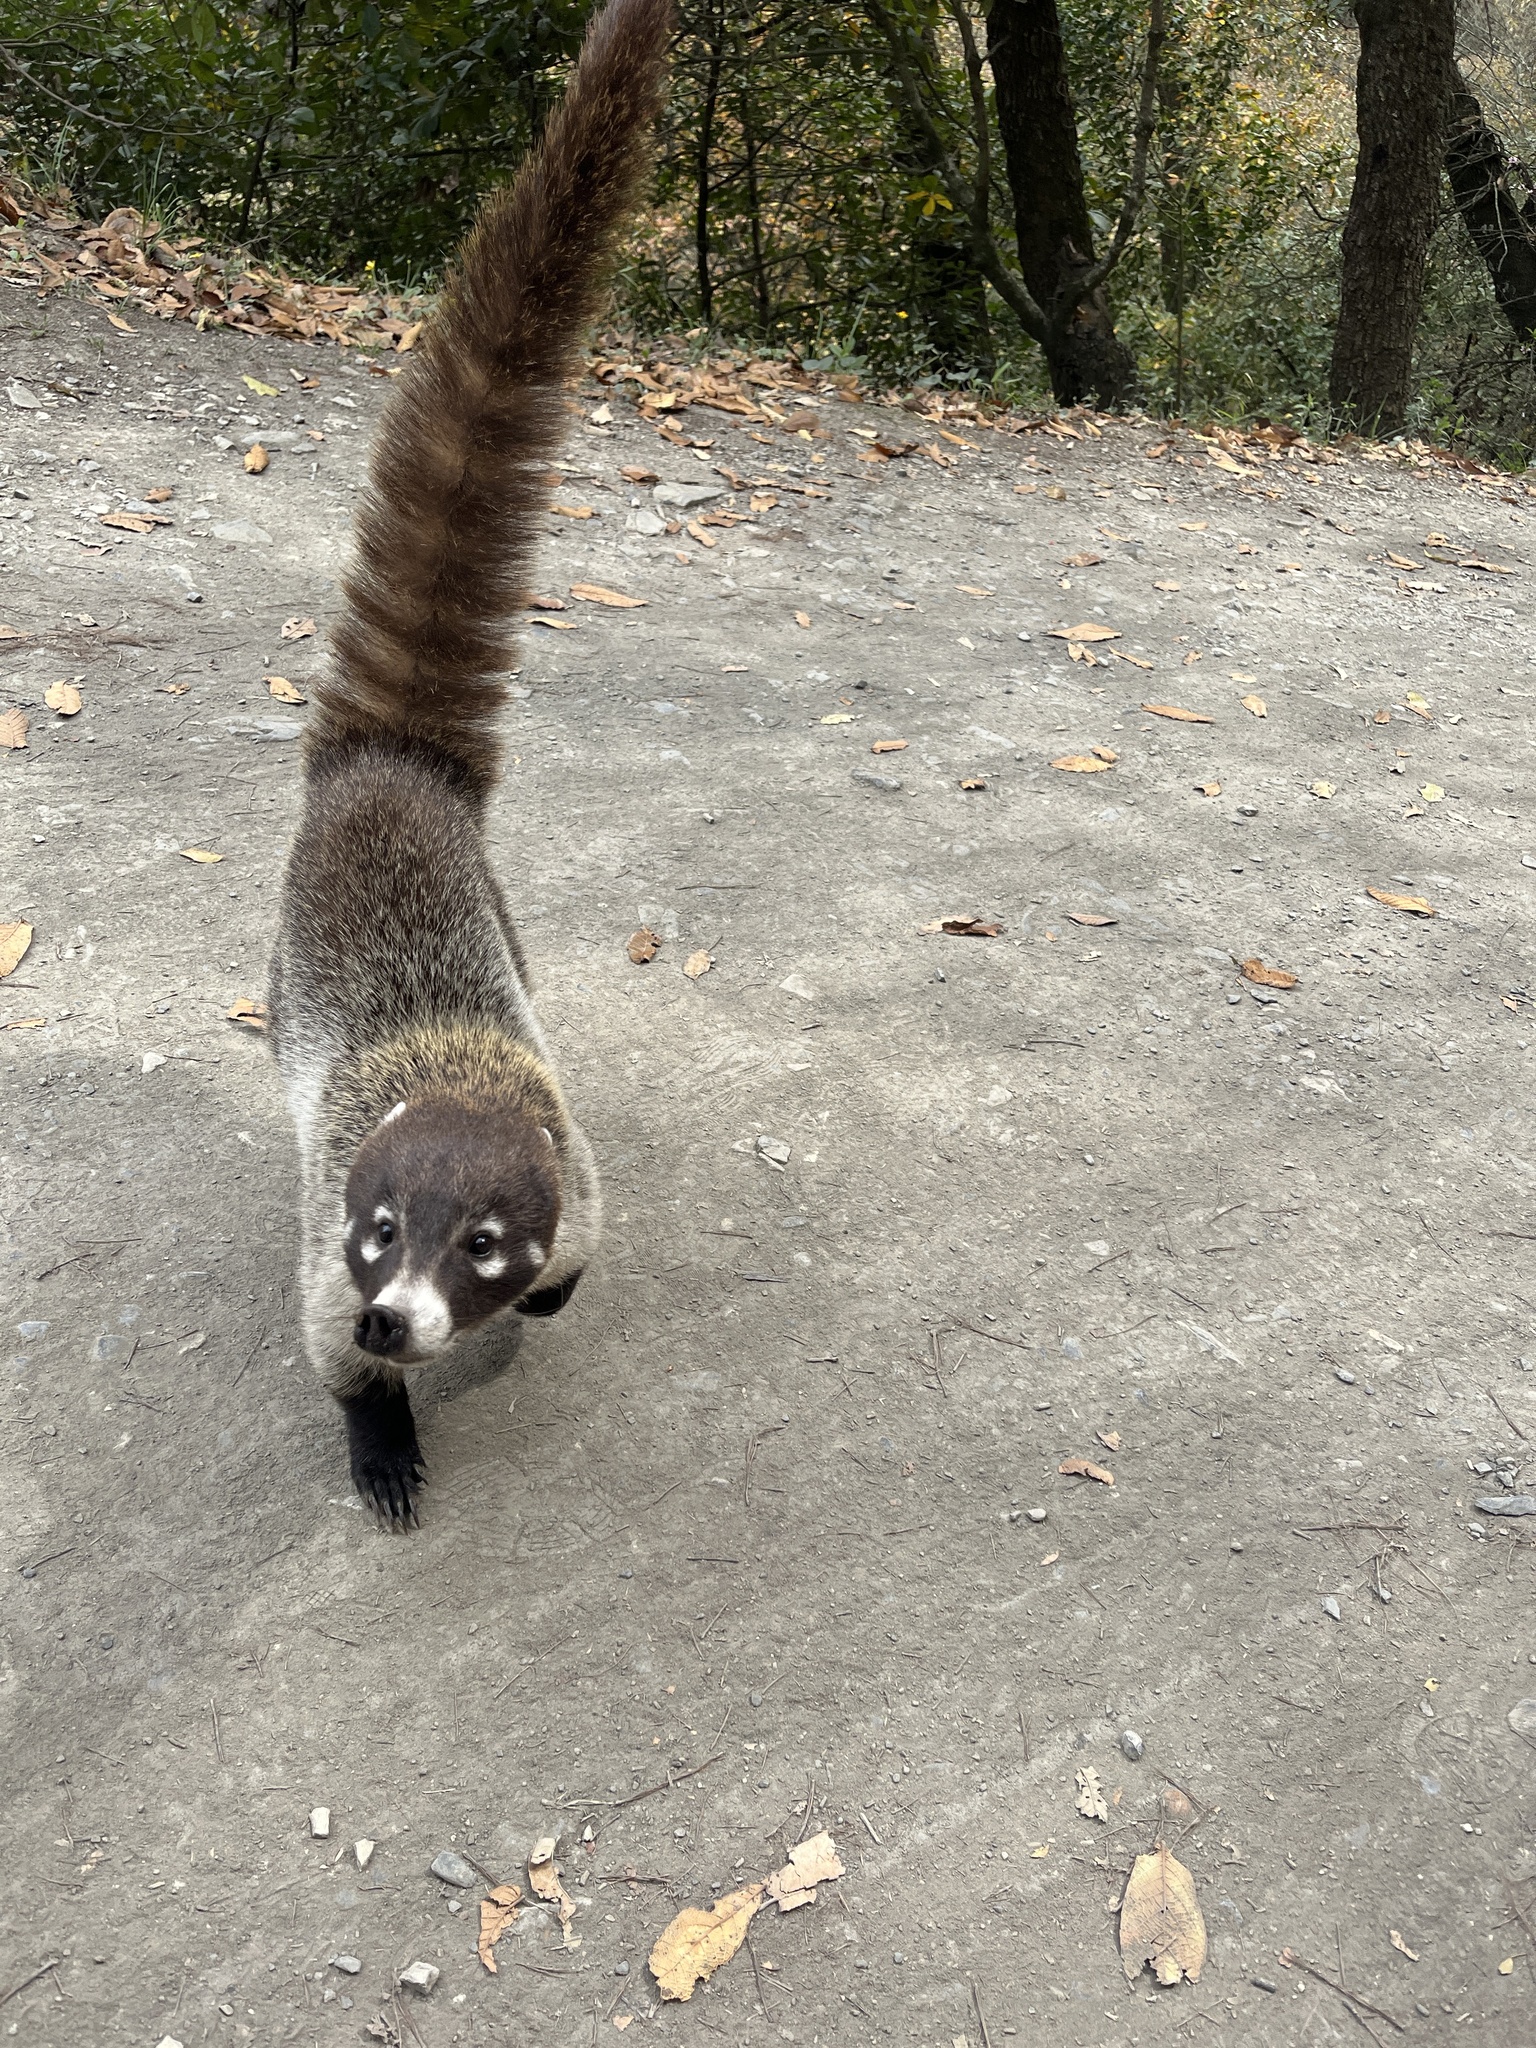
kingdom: Animalia
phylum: Chordata
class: Mammalia
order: Carnivora
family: Procyonidae
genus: Nasua
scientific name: Nasua narica
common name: White-nosed coati
